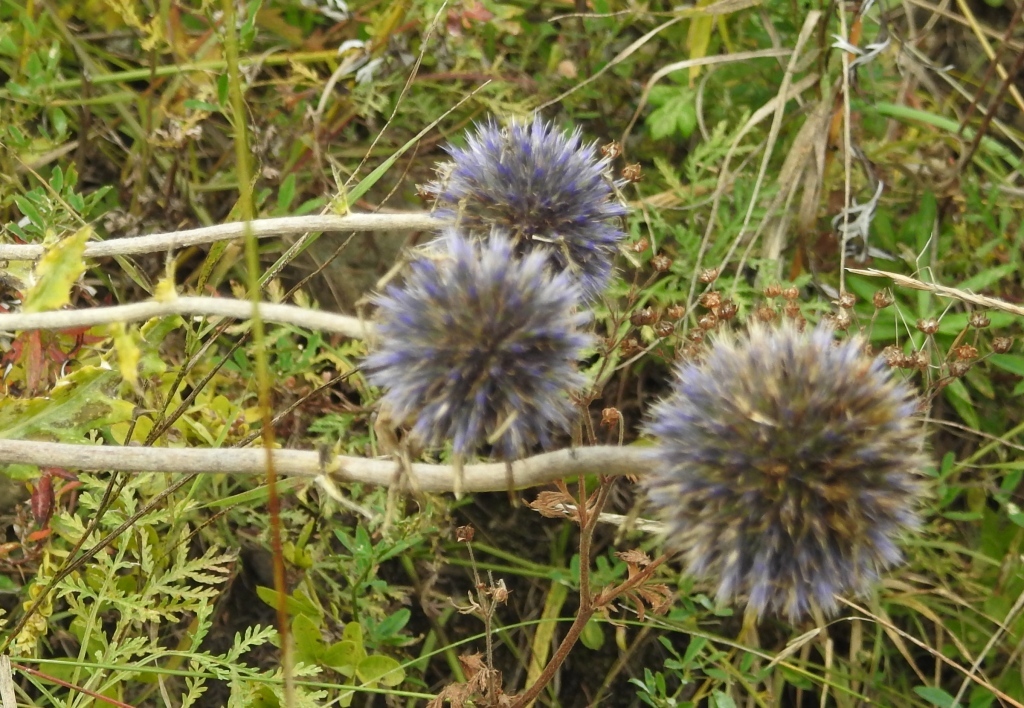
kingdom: Plantae
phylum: Tracheophyta
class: Magnoliopsida
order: Asterales
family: Asteraceae
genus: Echinops
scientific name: Echinops davuricus
